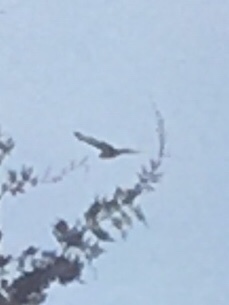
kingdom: Animalia
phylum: Chordata
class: Aves
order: Accipitriformes
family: Accipitridae
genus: Buteo
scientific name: Buteo lagopus
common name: Rough-legged buzzard
